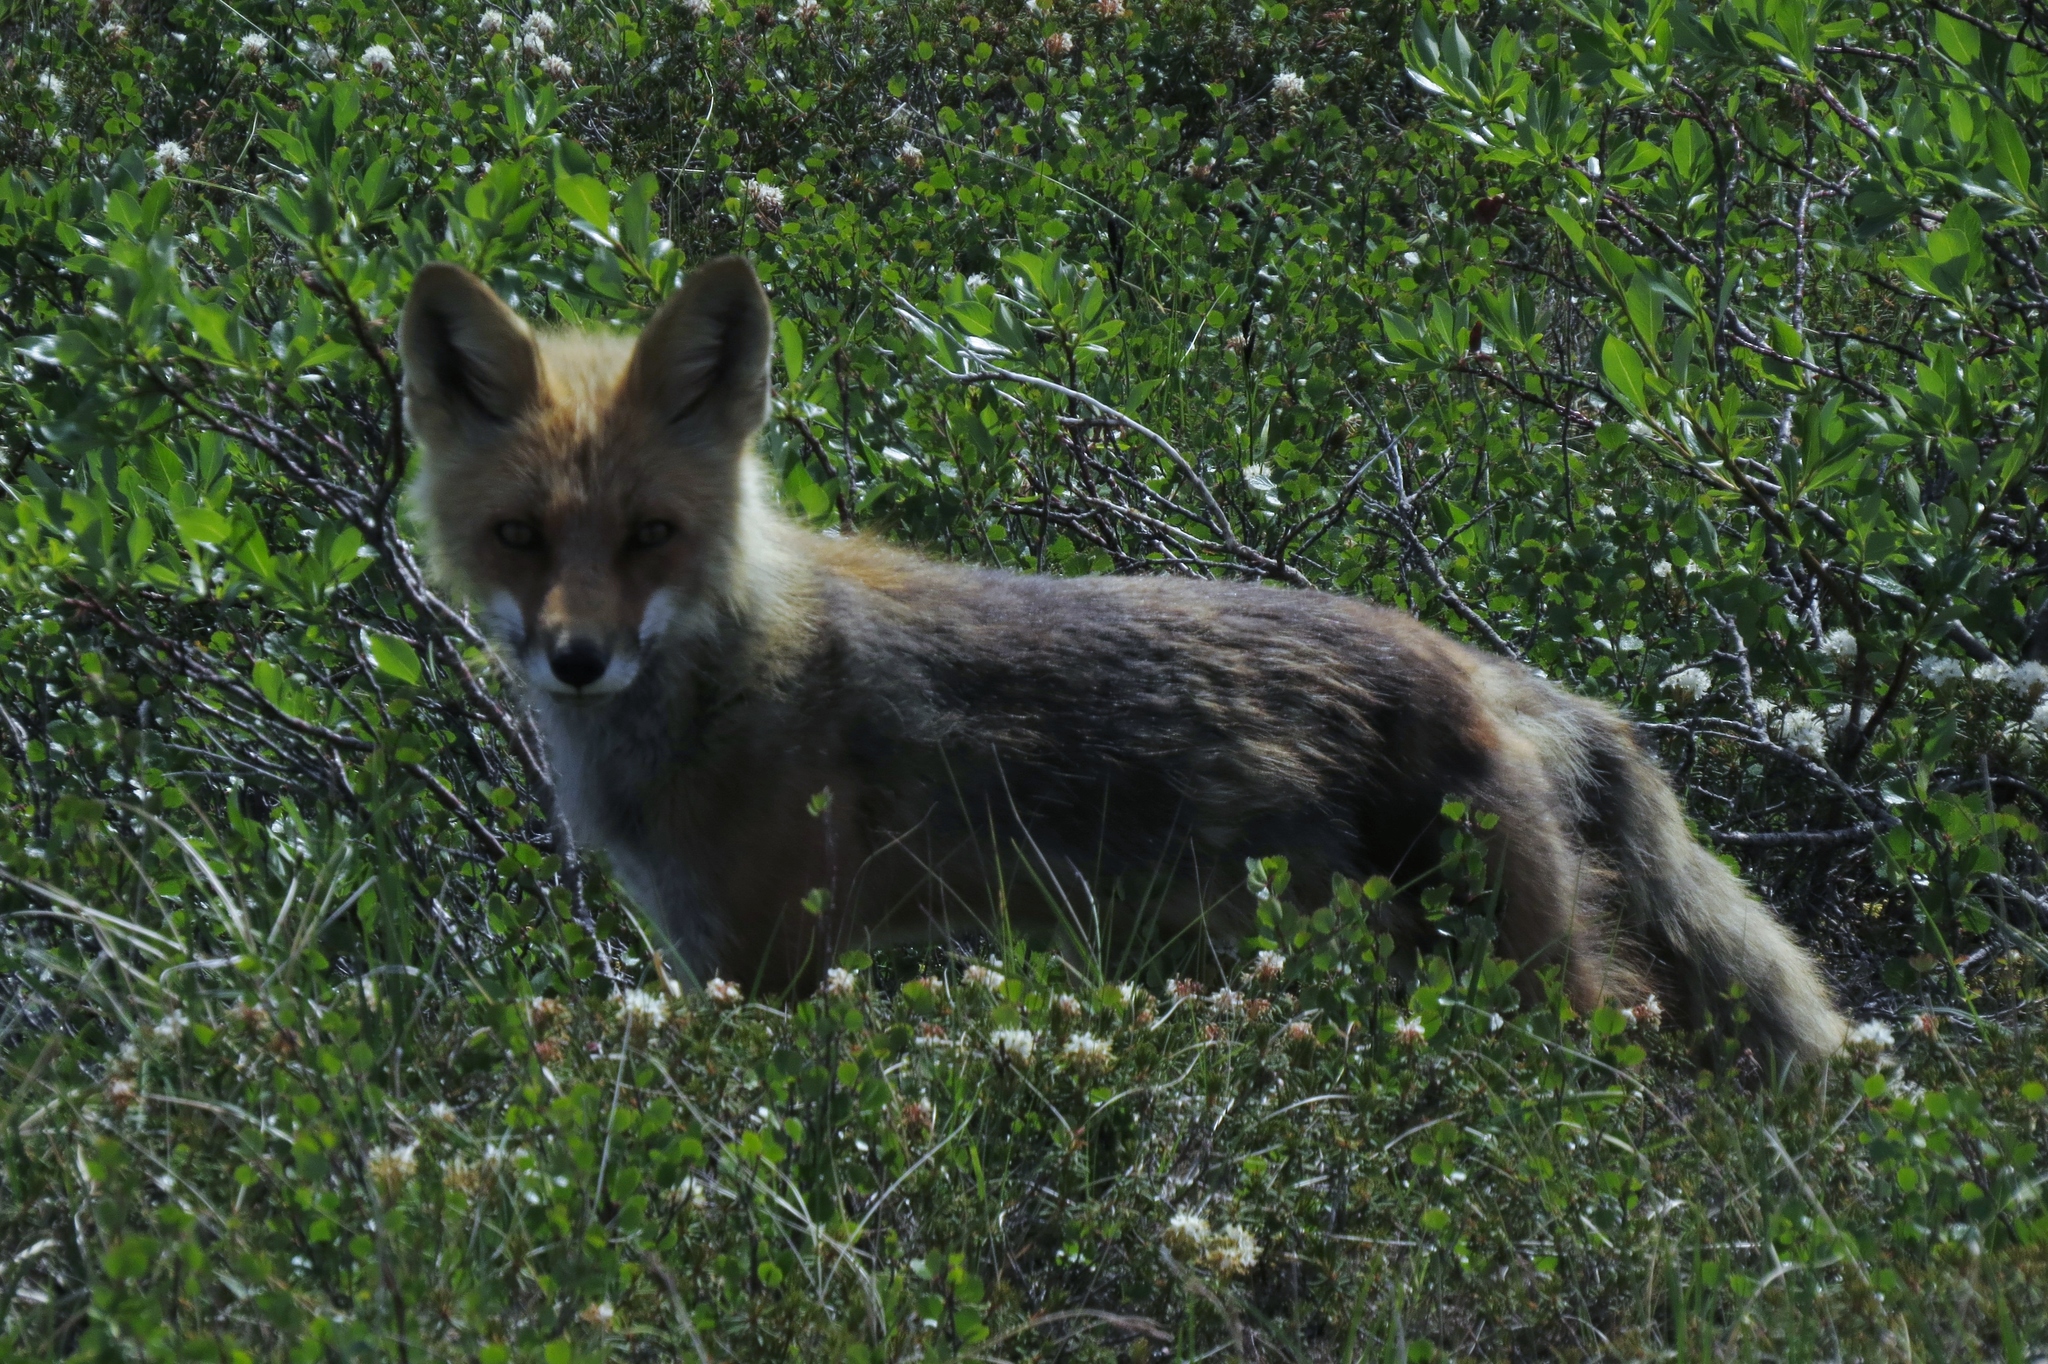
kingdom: Animalia
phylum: Chordata
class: Mammalia
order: Carnivora
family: Canidae
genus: Vulpes
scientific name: Vulpes vulpes
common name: Red fox
